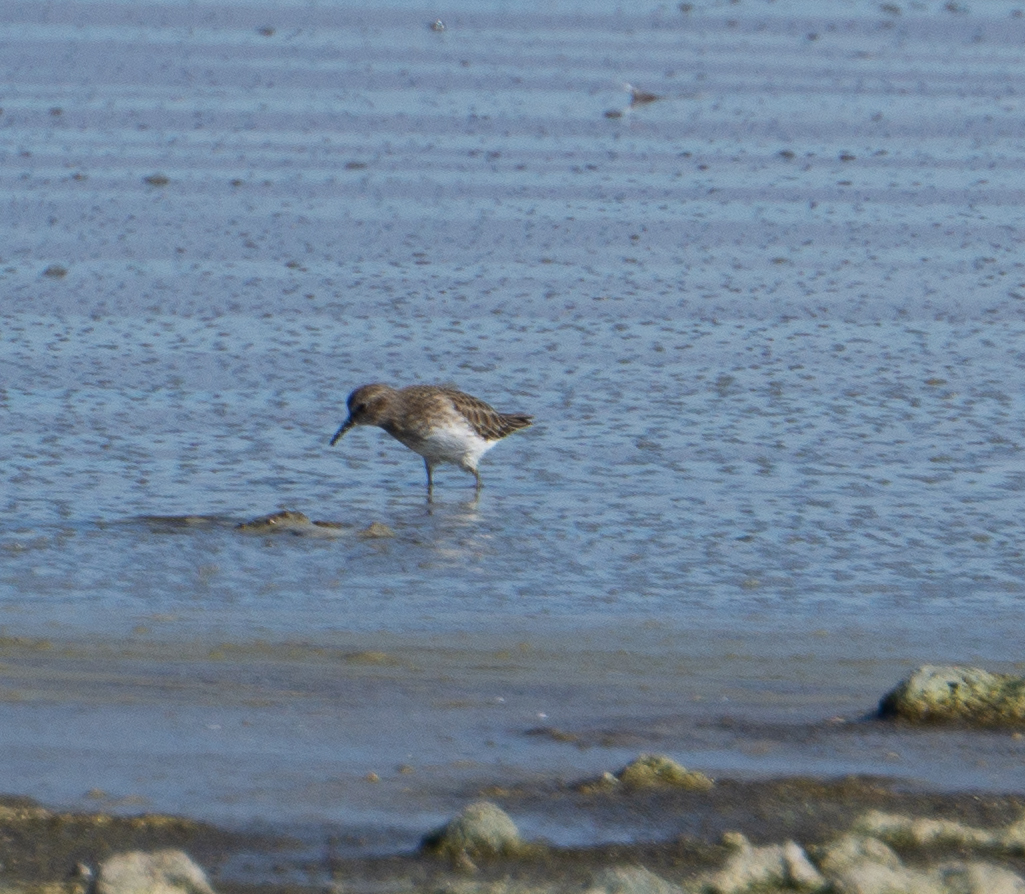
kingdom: Animalia
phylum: Chordata
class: Aves
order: Charadriiformes
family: Scolopacidae
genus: Calidris
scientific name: Calidris minutilla
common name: Least sandpiper
